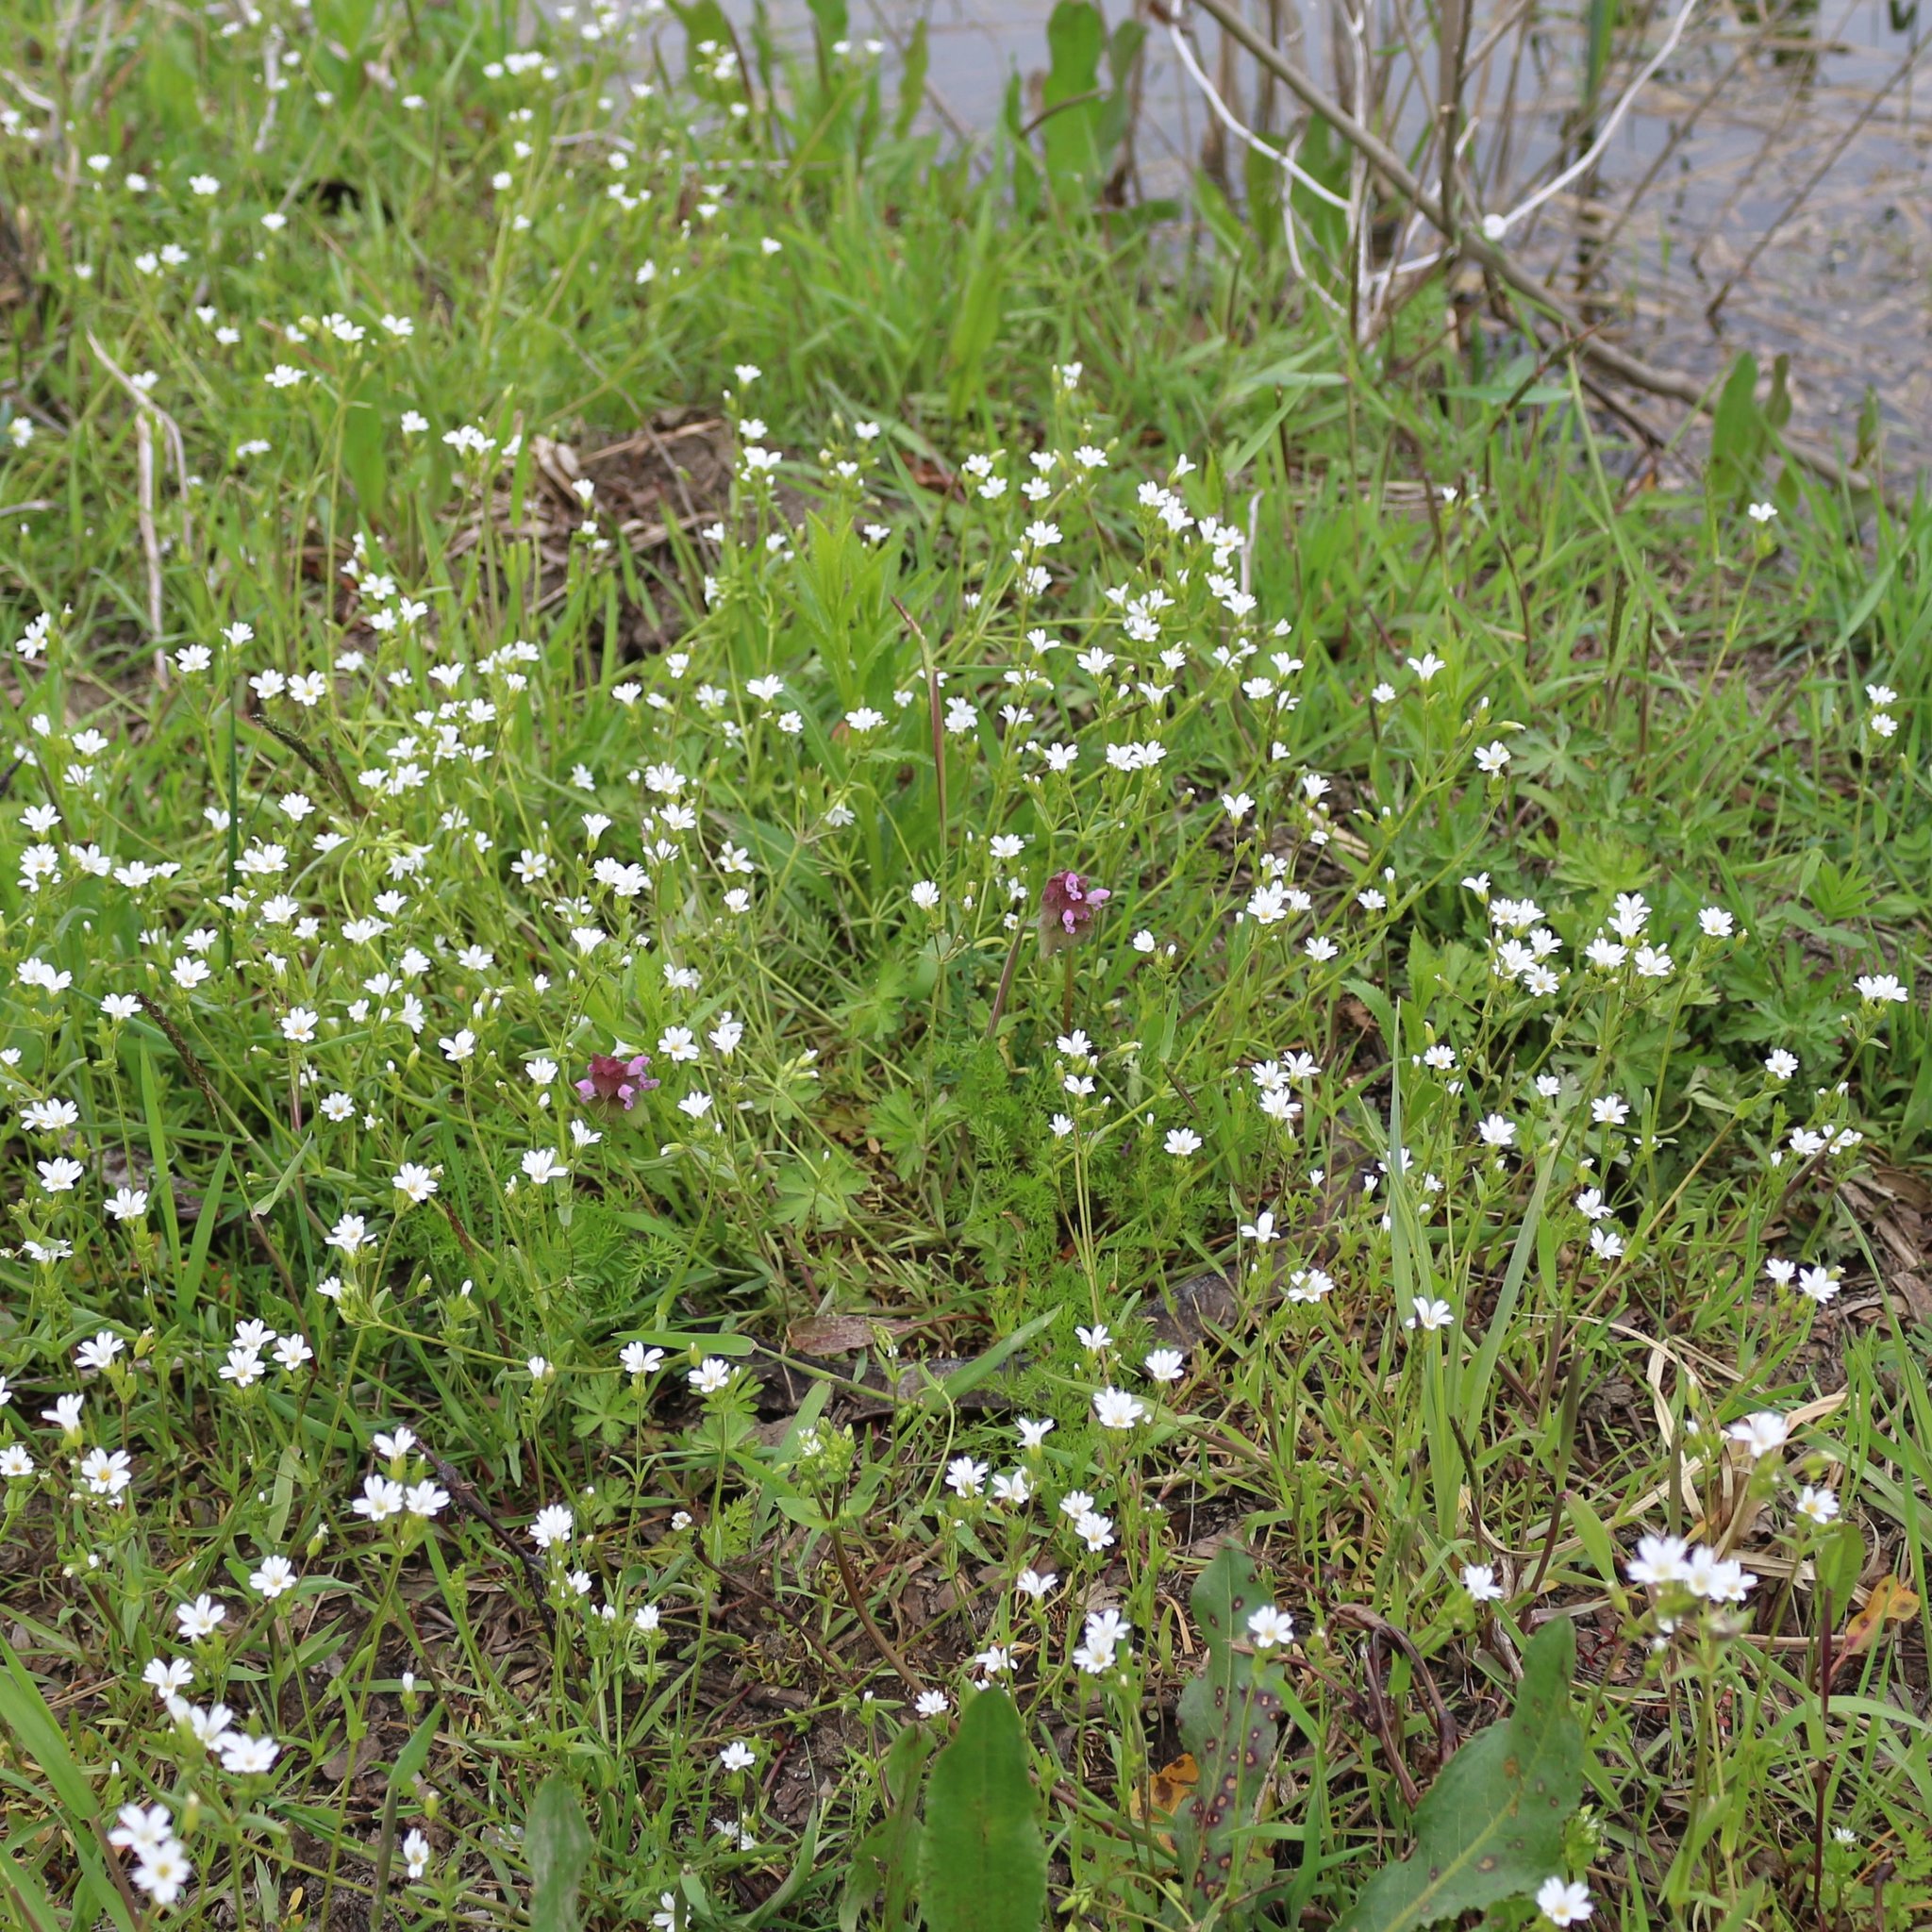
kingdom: Plantae
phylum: Tracheophyta
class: Magnoliopsida
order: Caryophyllales
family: Caryophyllaceae
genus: Dichodon
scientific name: Dichodon viscidum
